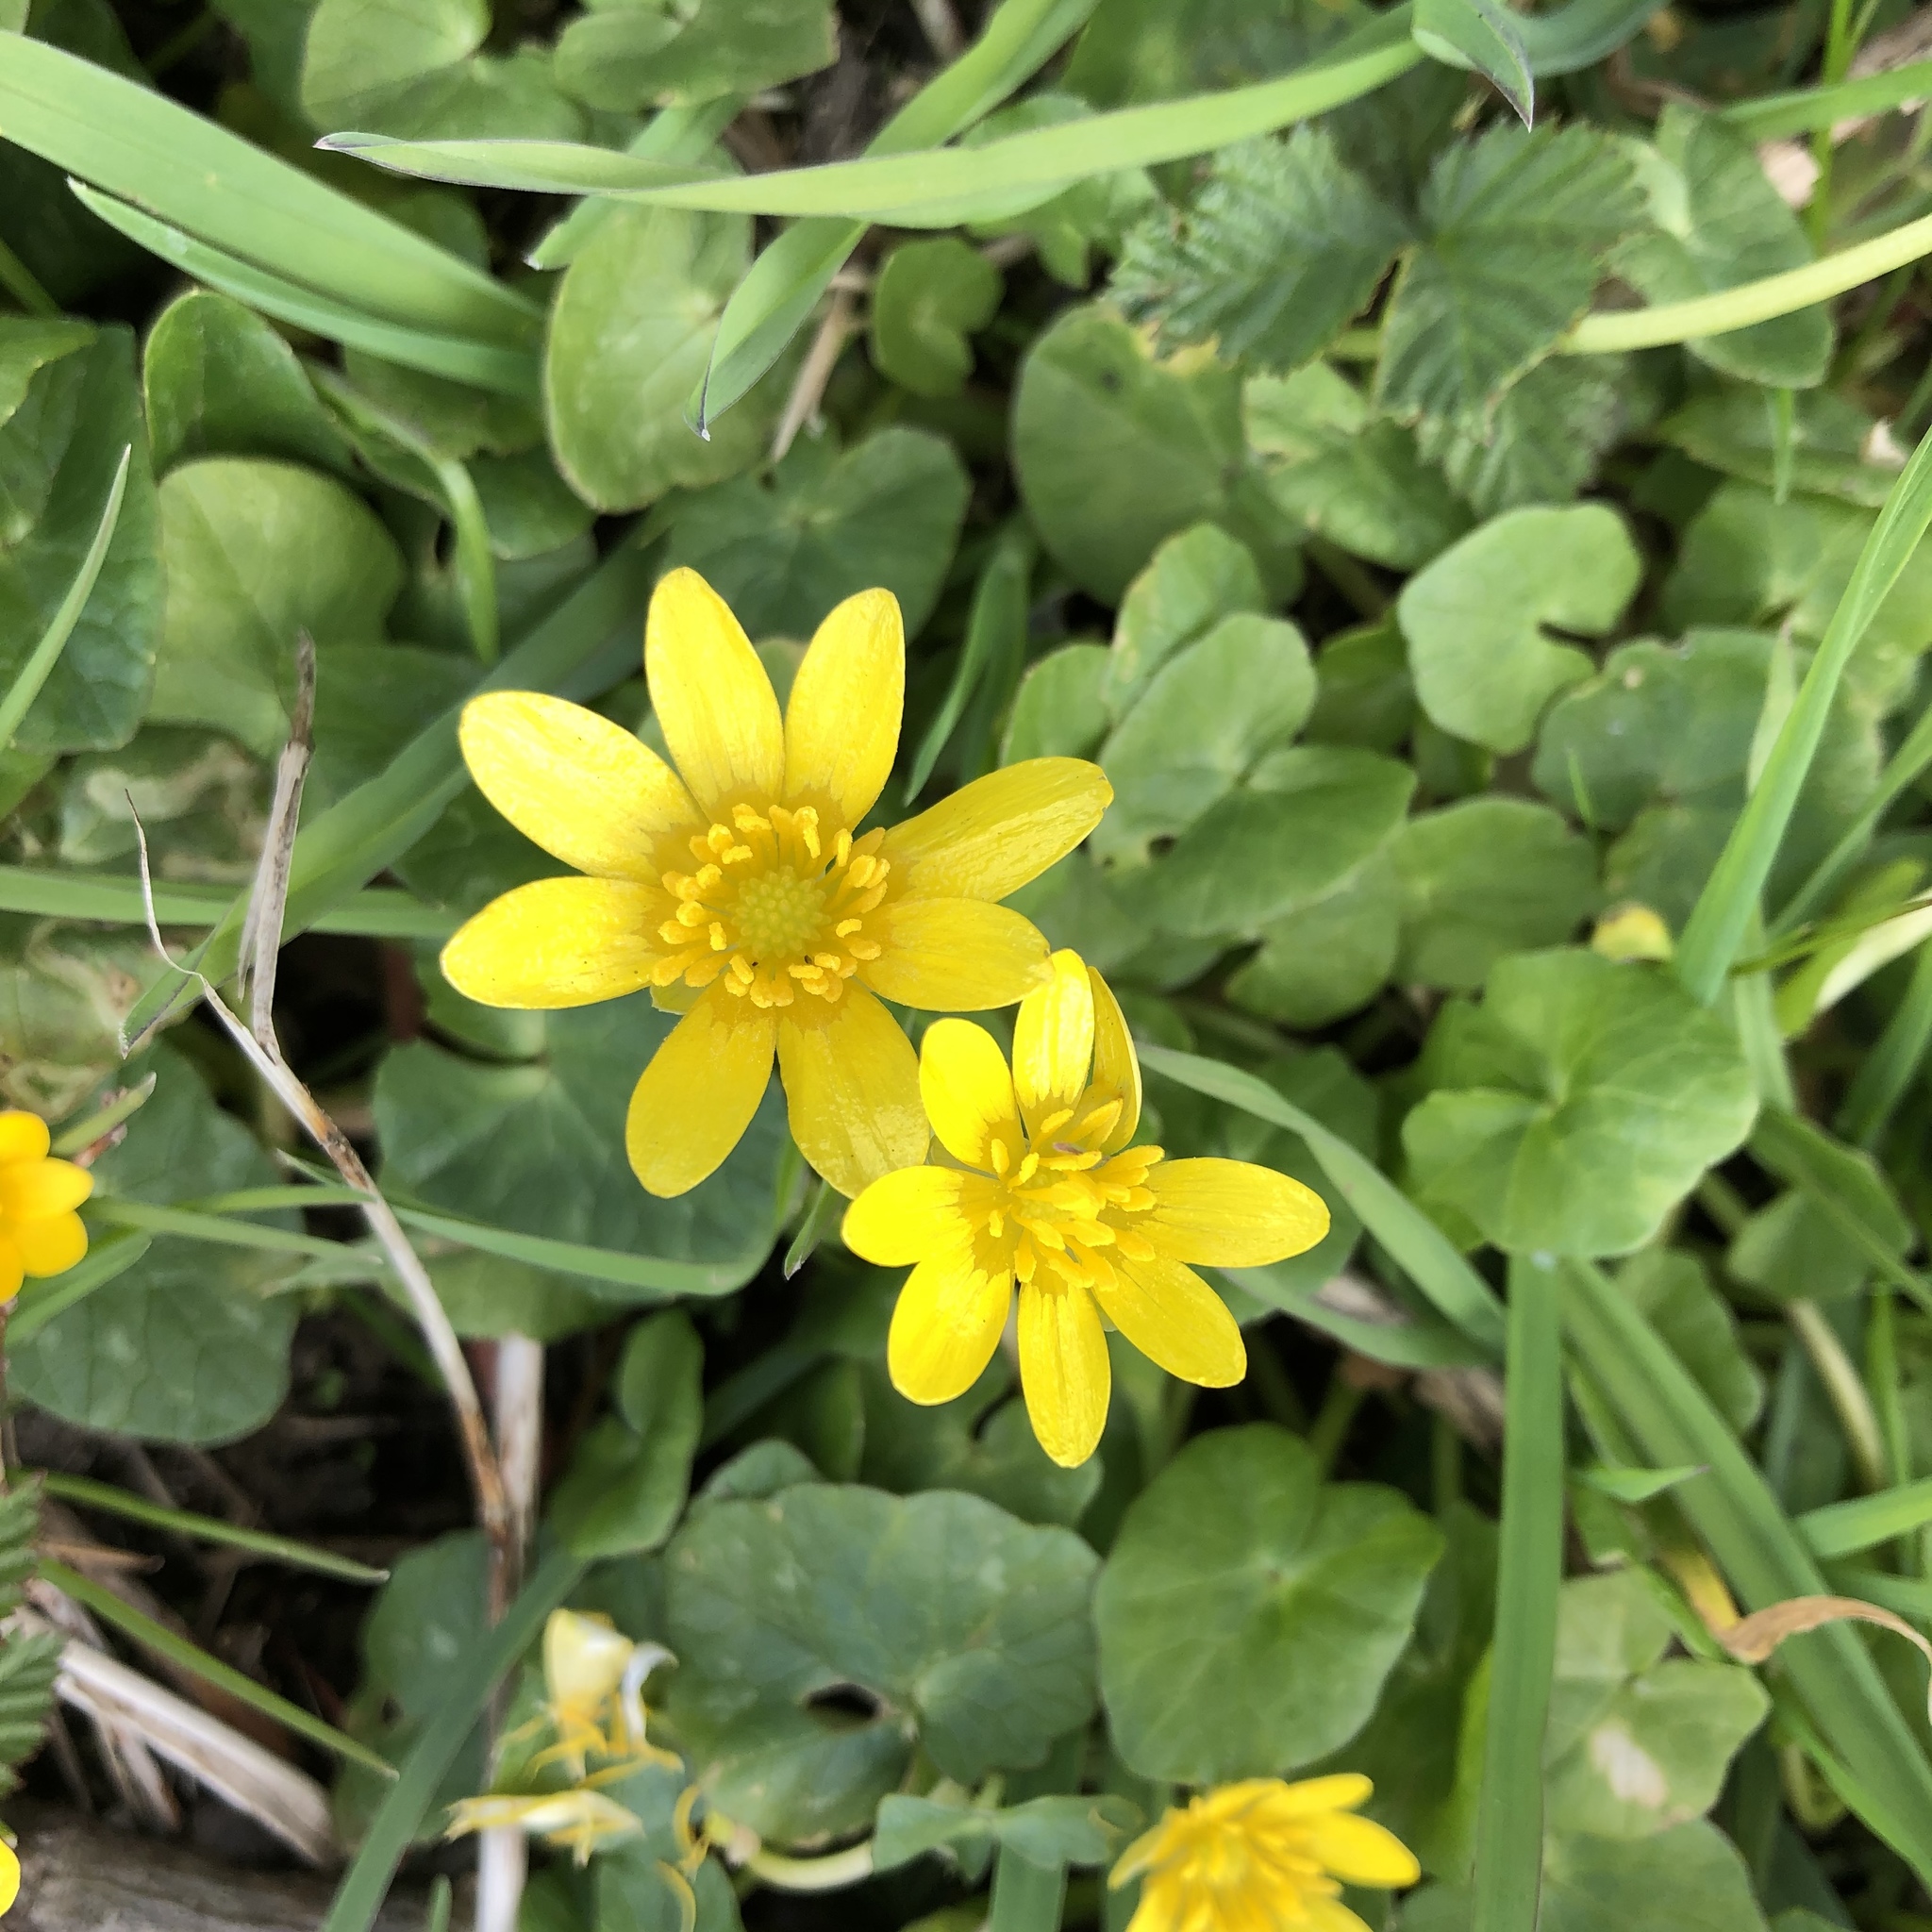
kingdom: Plantae
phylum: Tracheophyta
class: Magnoliopsida
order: Ranunculales
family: Ranunculaceae
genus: Ficaria
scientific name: Ficaria verna
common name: Lesser celandine
